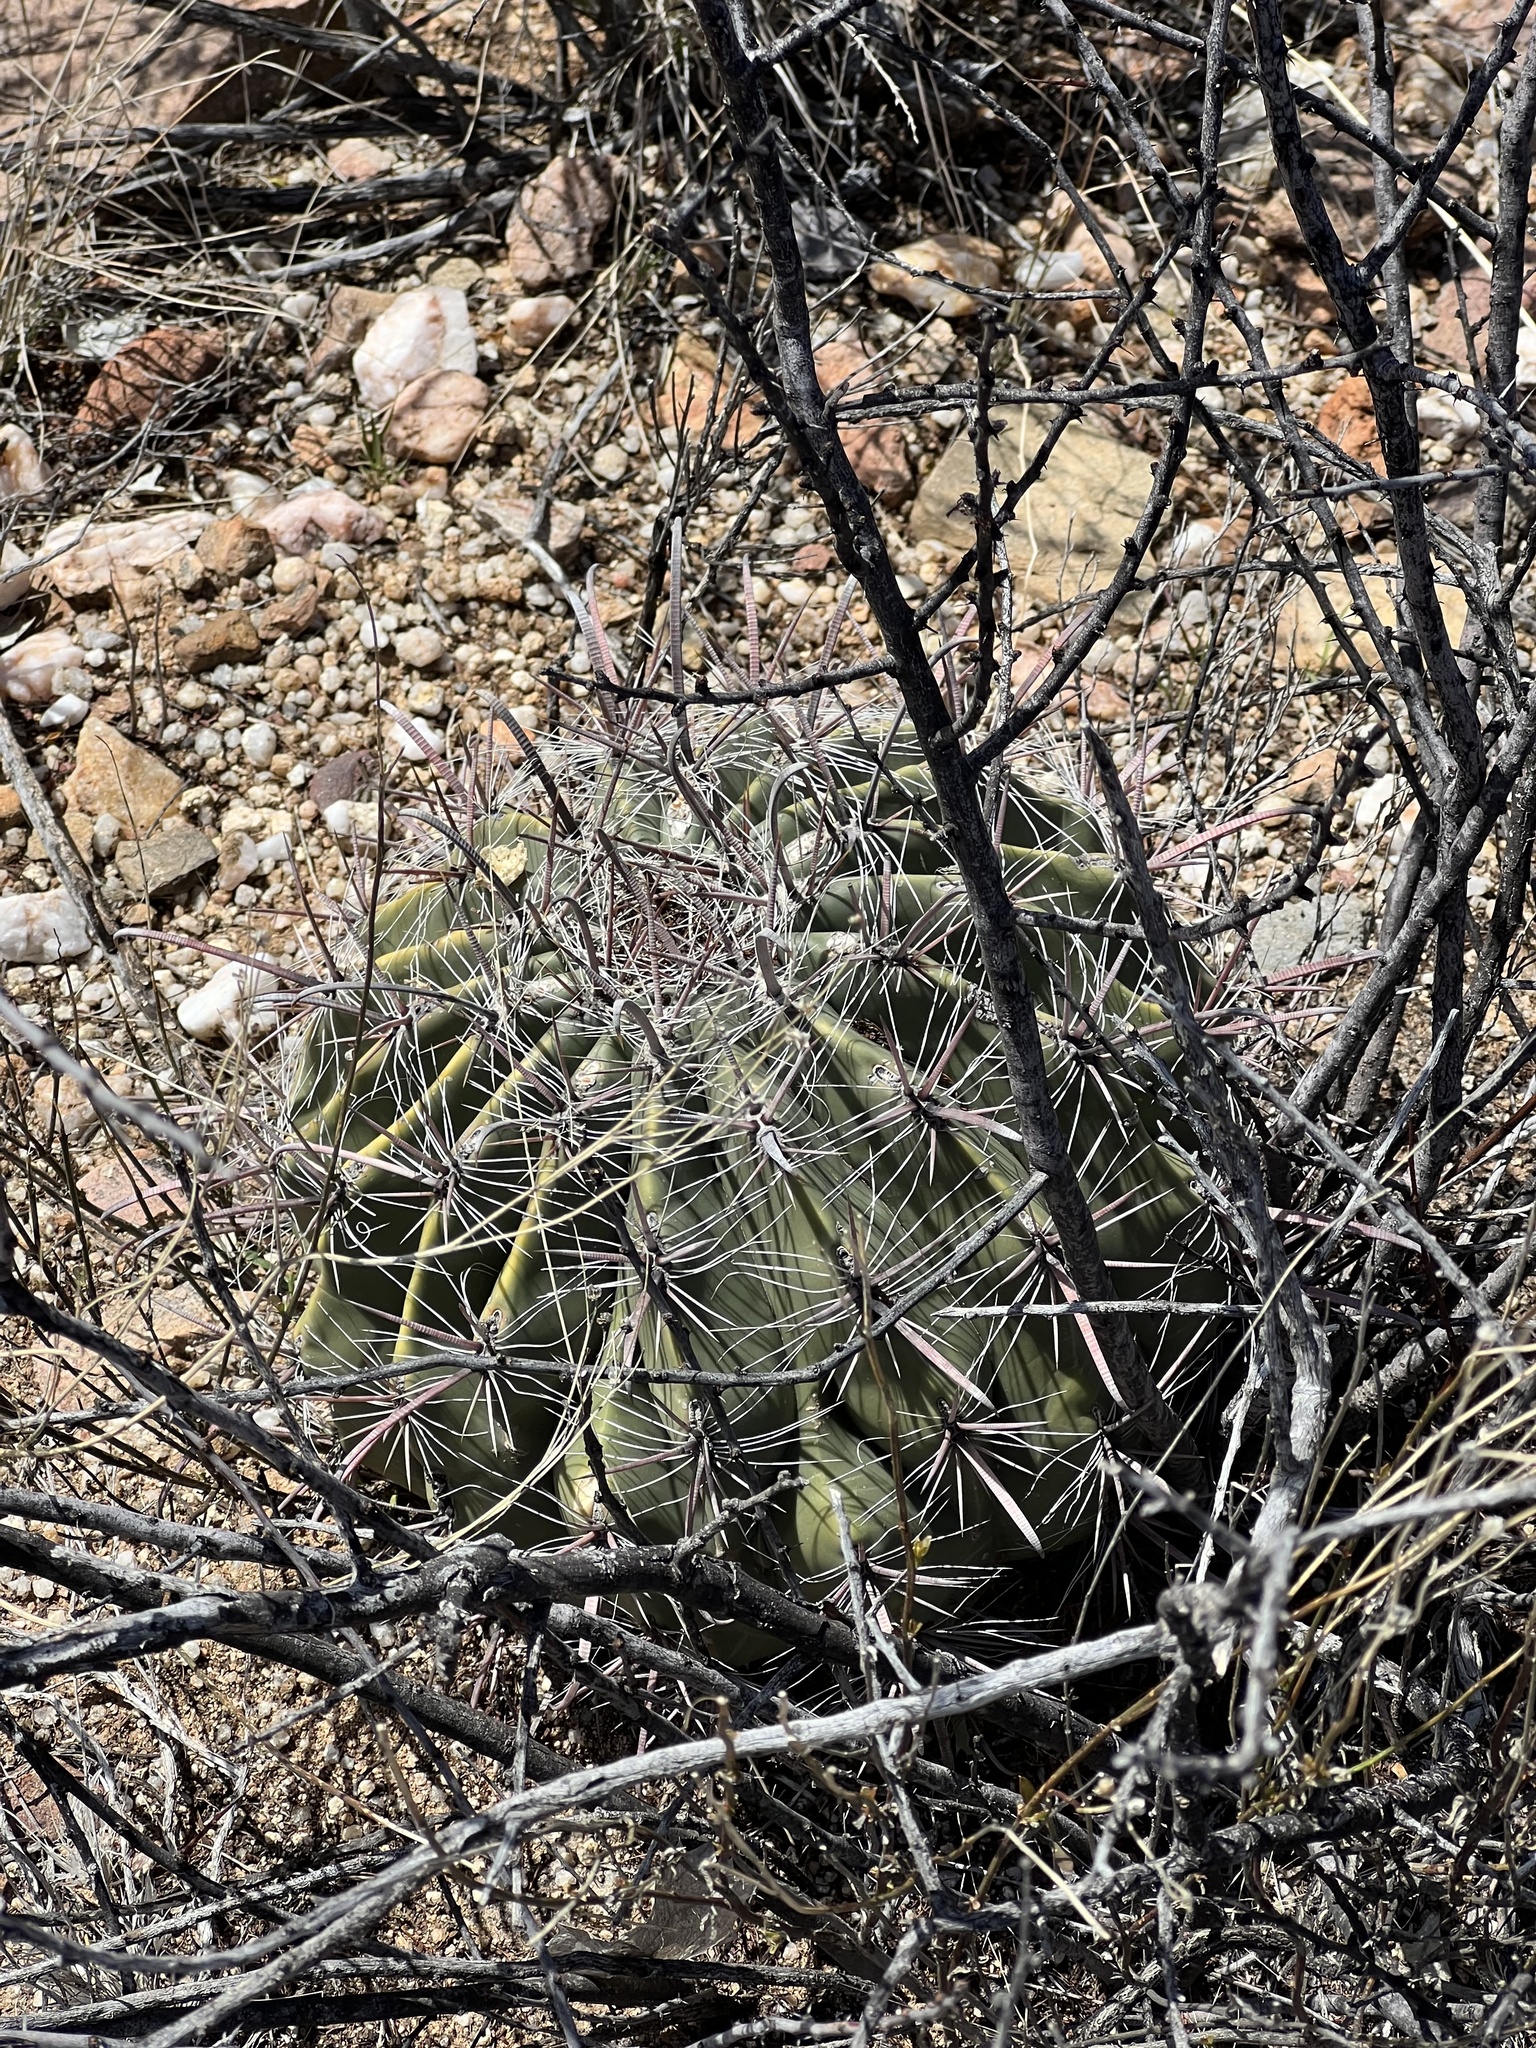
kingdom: Plantae
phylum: Tracheophyta
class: Magnoliopsida
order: Caryophyllales
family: Cactaceae
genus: Ferocactus
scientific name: Ferocactus wislizeni
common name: Candy barrel cactus
